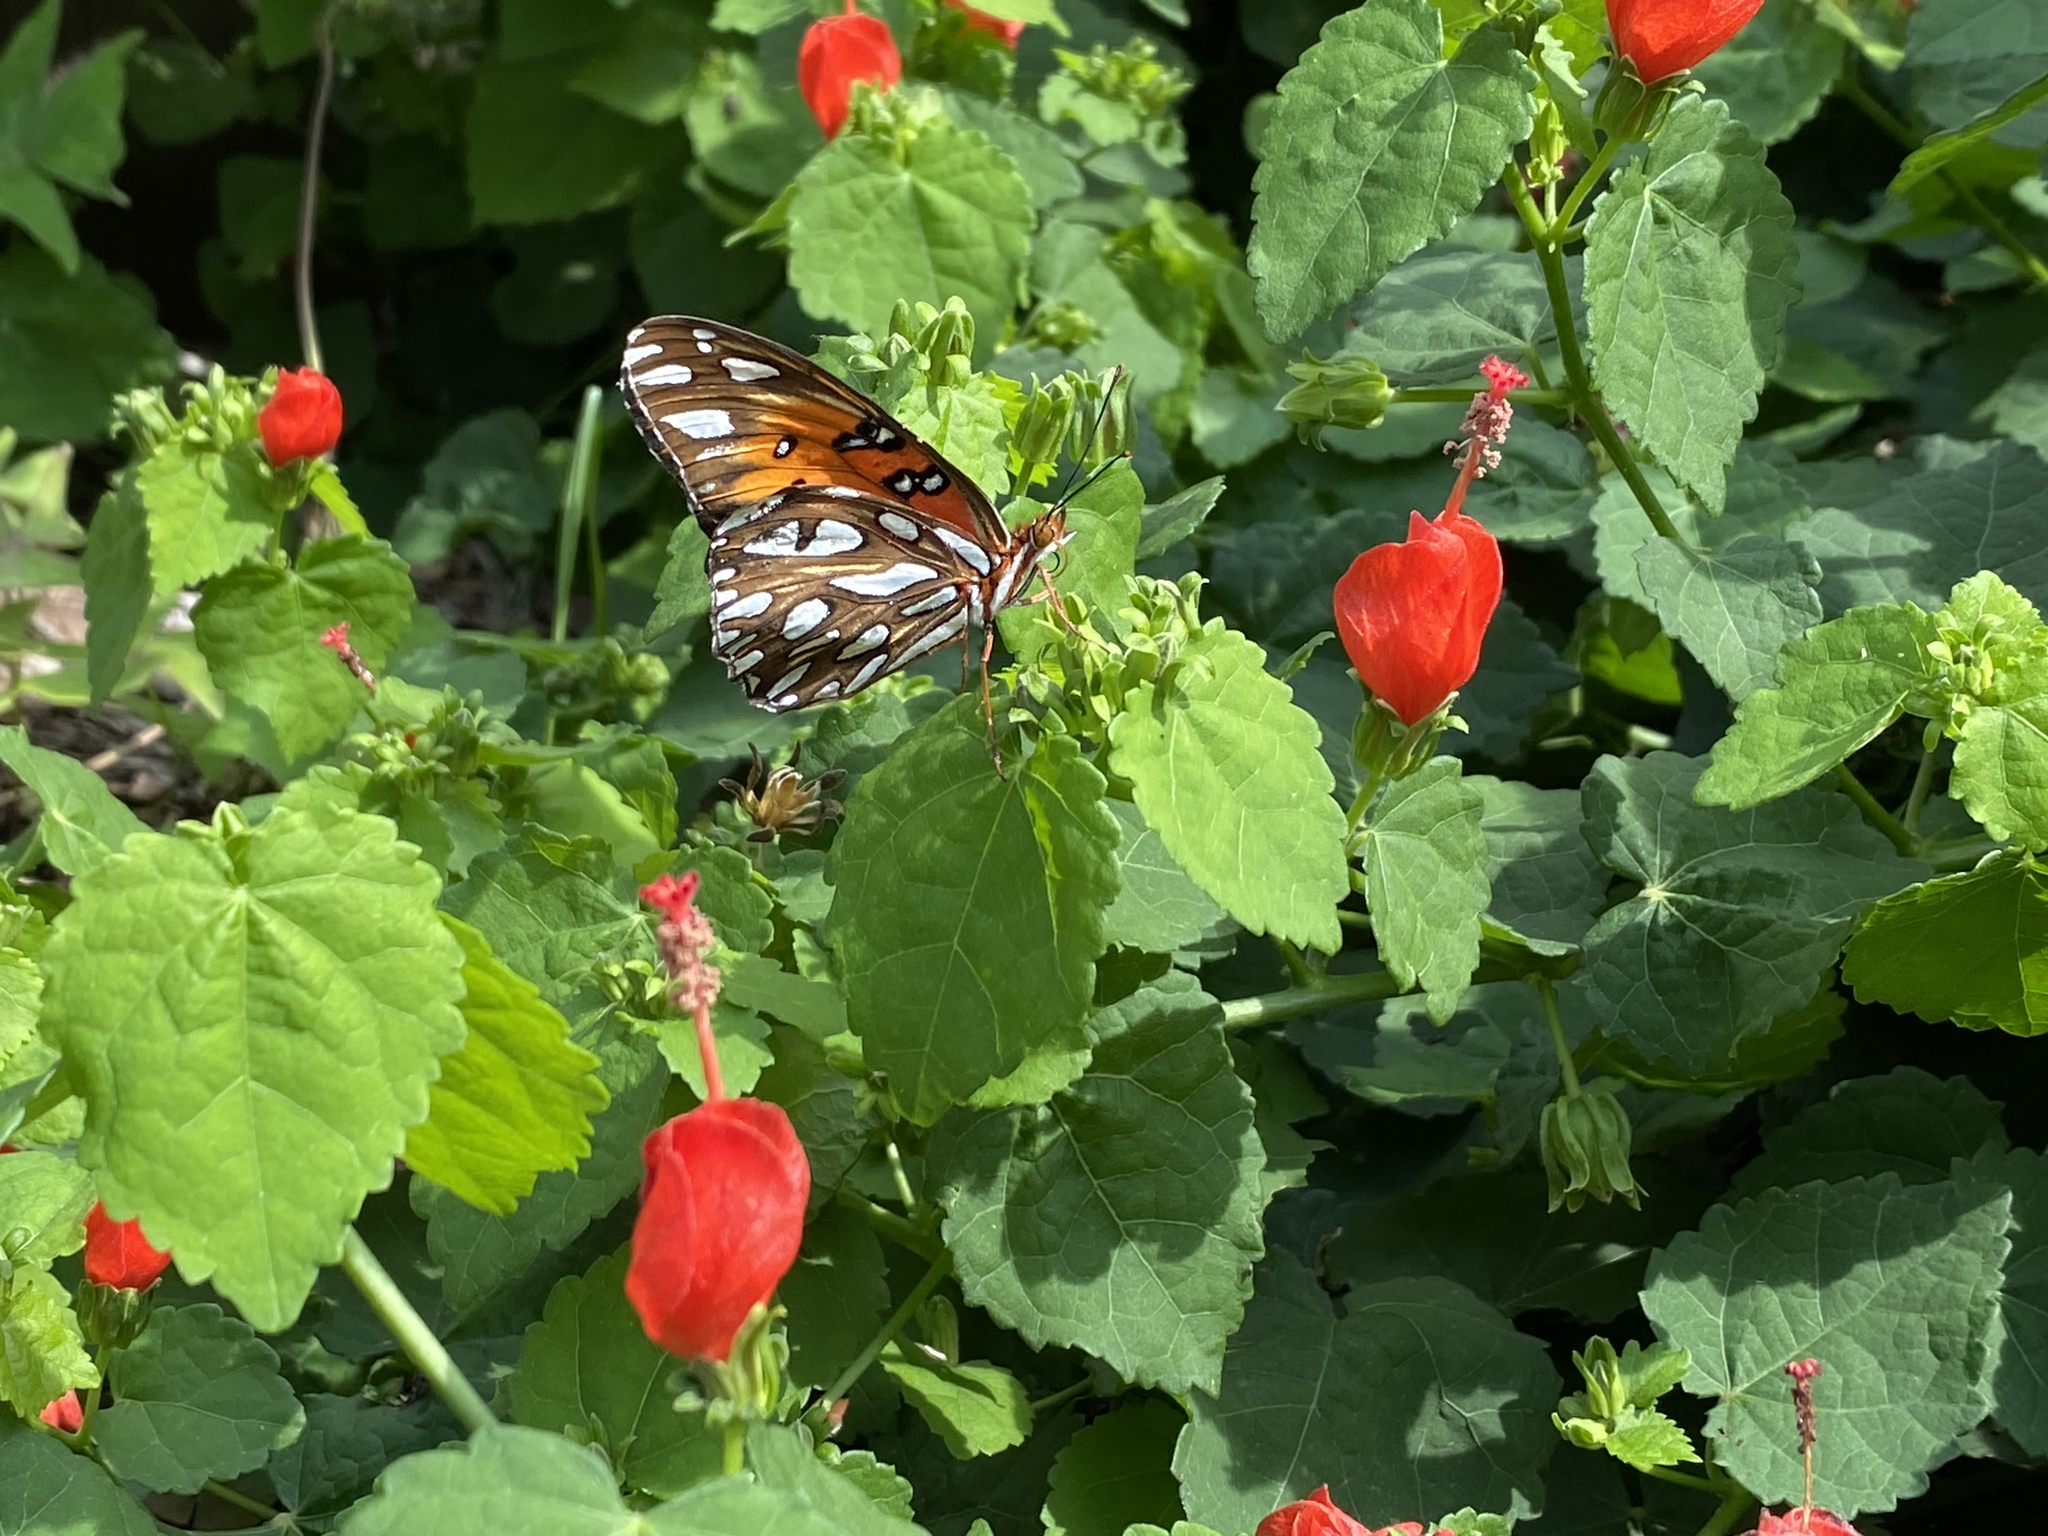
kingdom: Animalia
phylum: Arthropoda
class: Insecta
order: Lepidoptera
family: Nymphalidae
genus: Dione
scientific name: Dione vanillae
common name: Gulf fritillary
